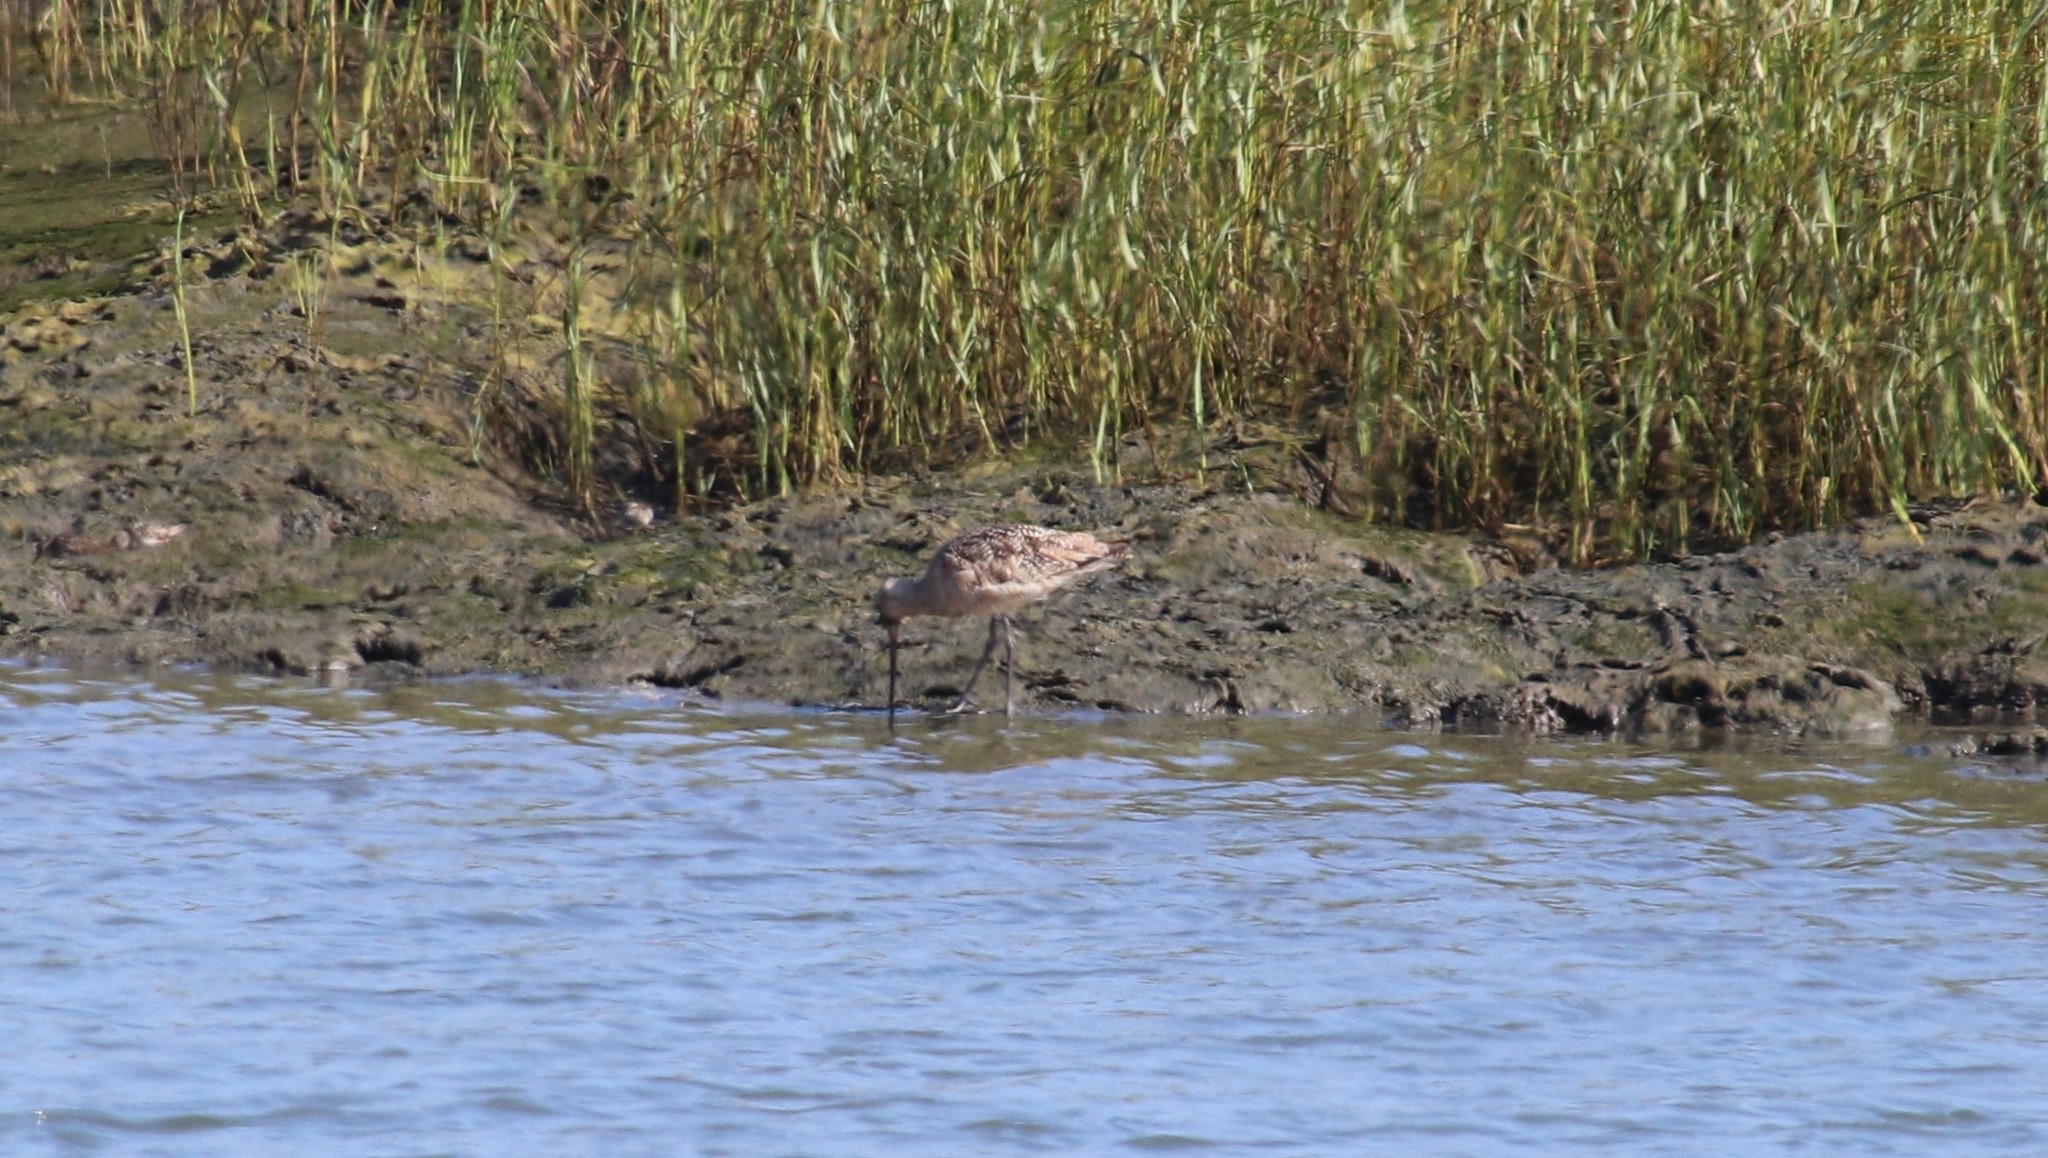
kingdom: Animalia
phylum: Chordata
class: Aves
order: Charadriiformes
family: Scolopacidae
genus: Limosa
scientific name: Limosa fedoa
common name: Marbled godwit
